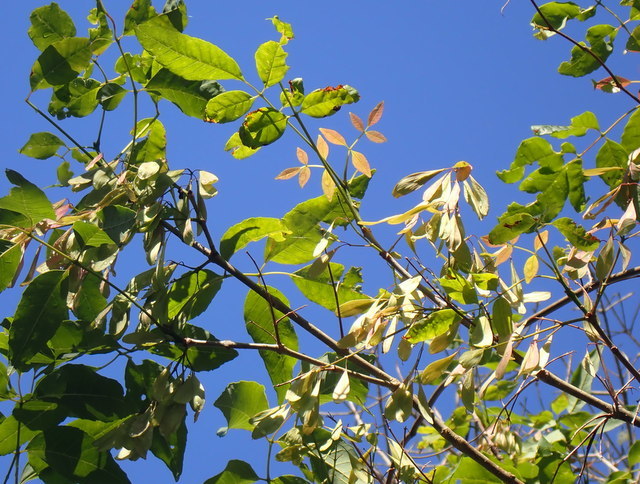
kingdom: Plantae
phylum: Tracheophyta
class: Magnoliopsida
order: Lamiales
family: Oleaceae
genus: Fraxinus
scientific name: Fraxinus caroliniana
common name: Carolina ash
